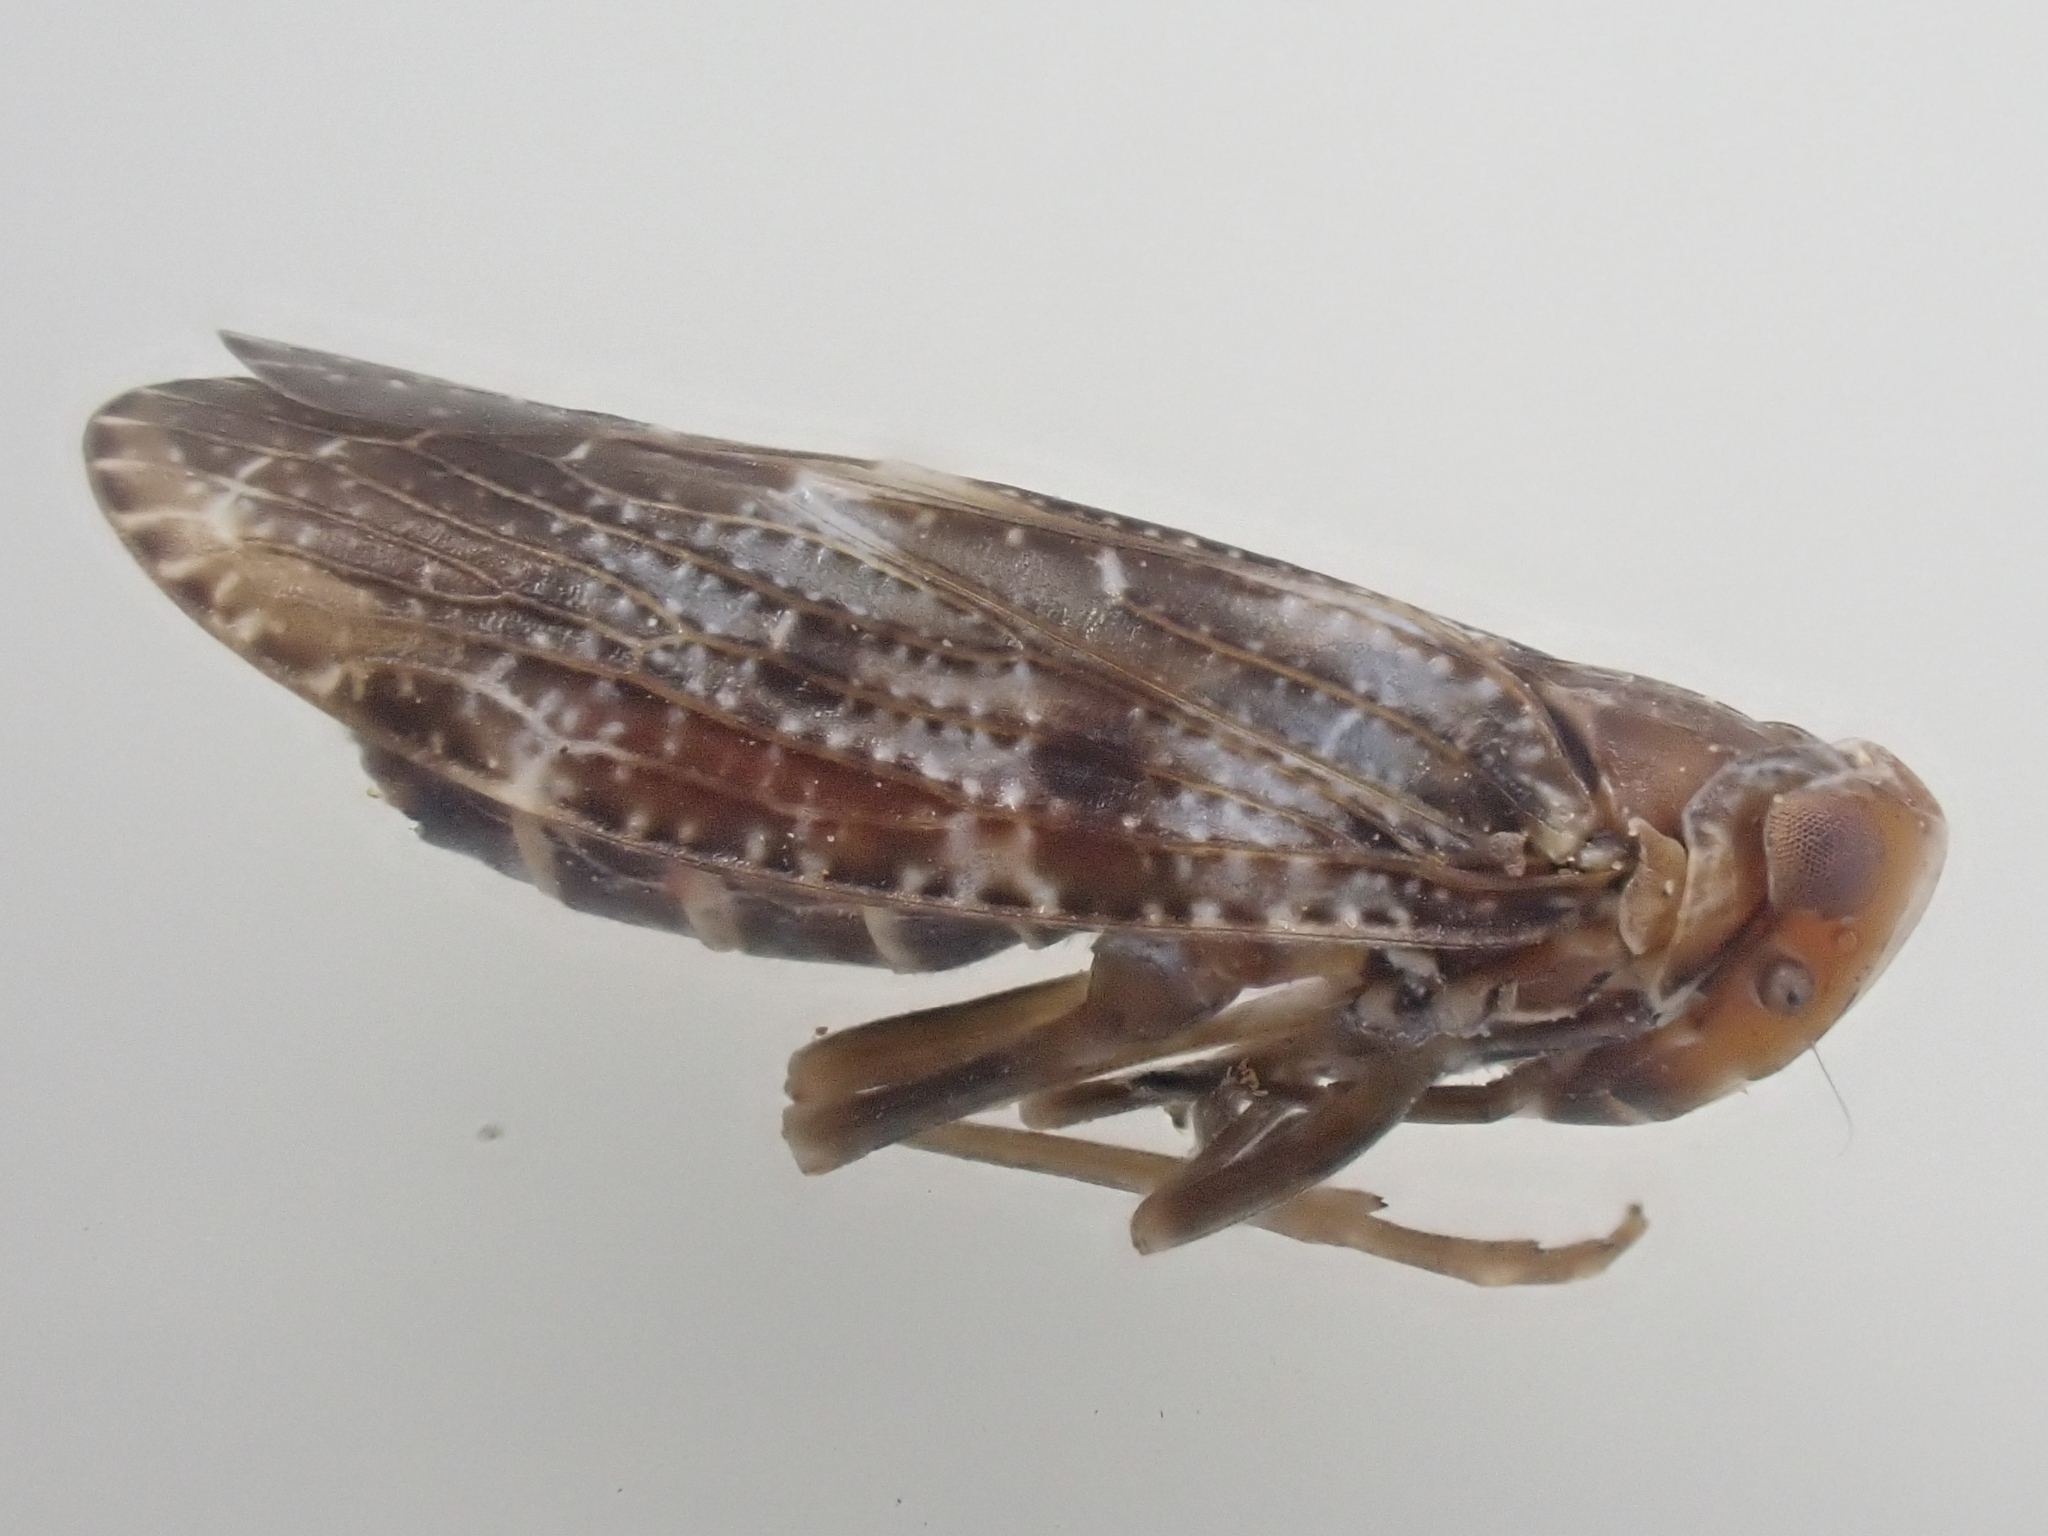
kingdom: Animalia
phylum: Arthropoda
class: Insecta
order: Hemiptera
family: Achilidae
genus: Synecdoche
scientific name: Synecdoche constellata
